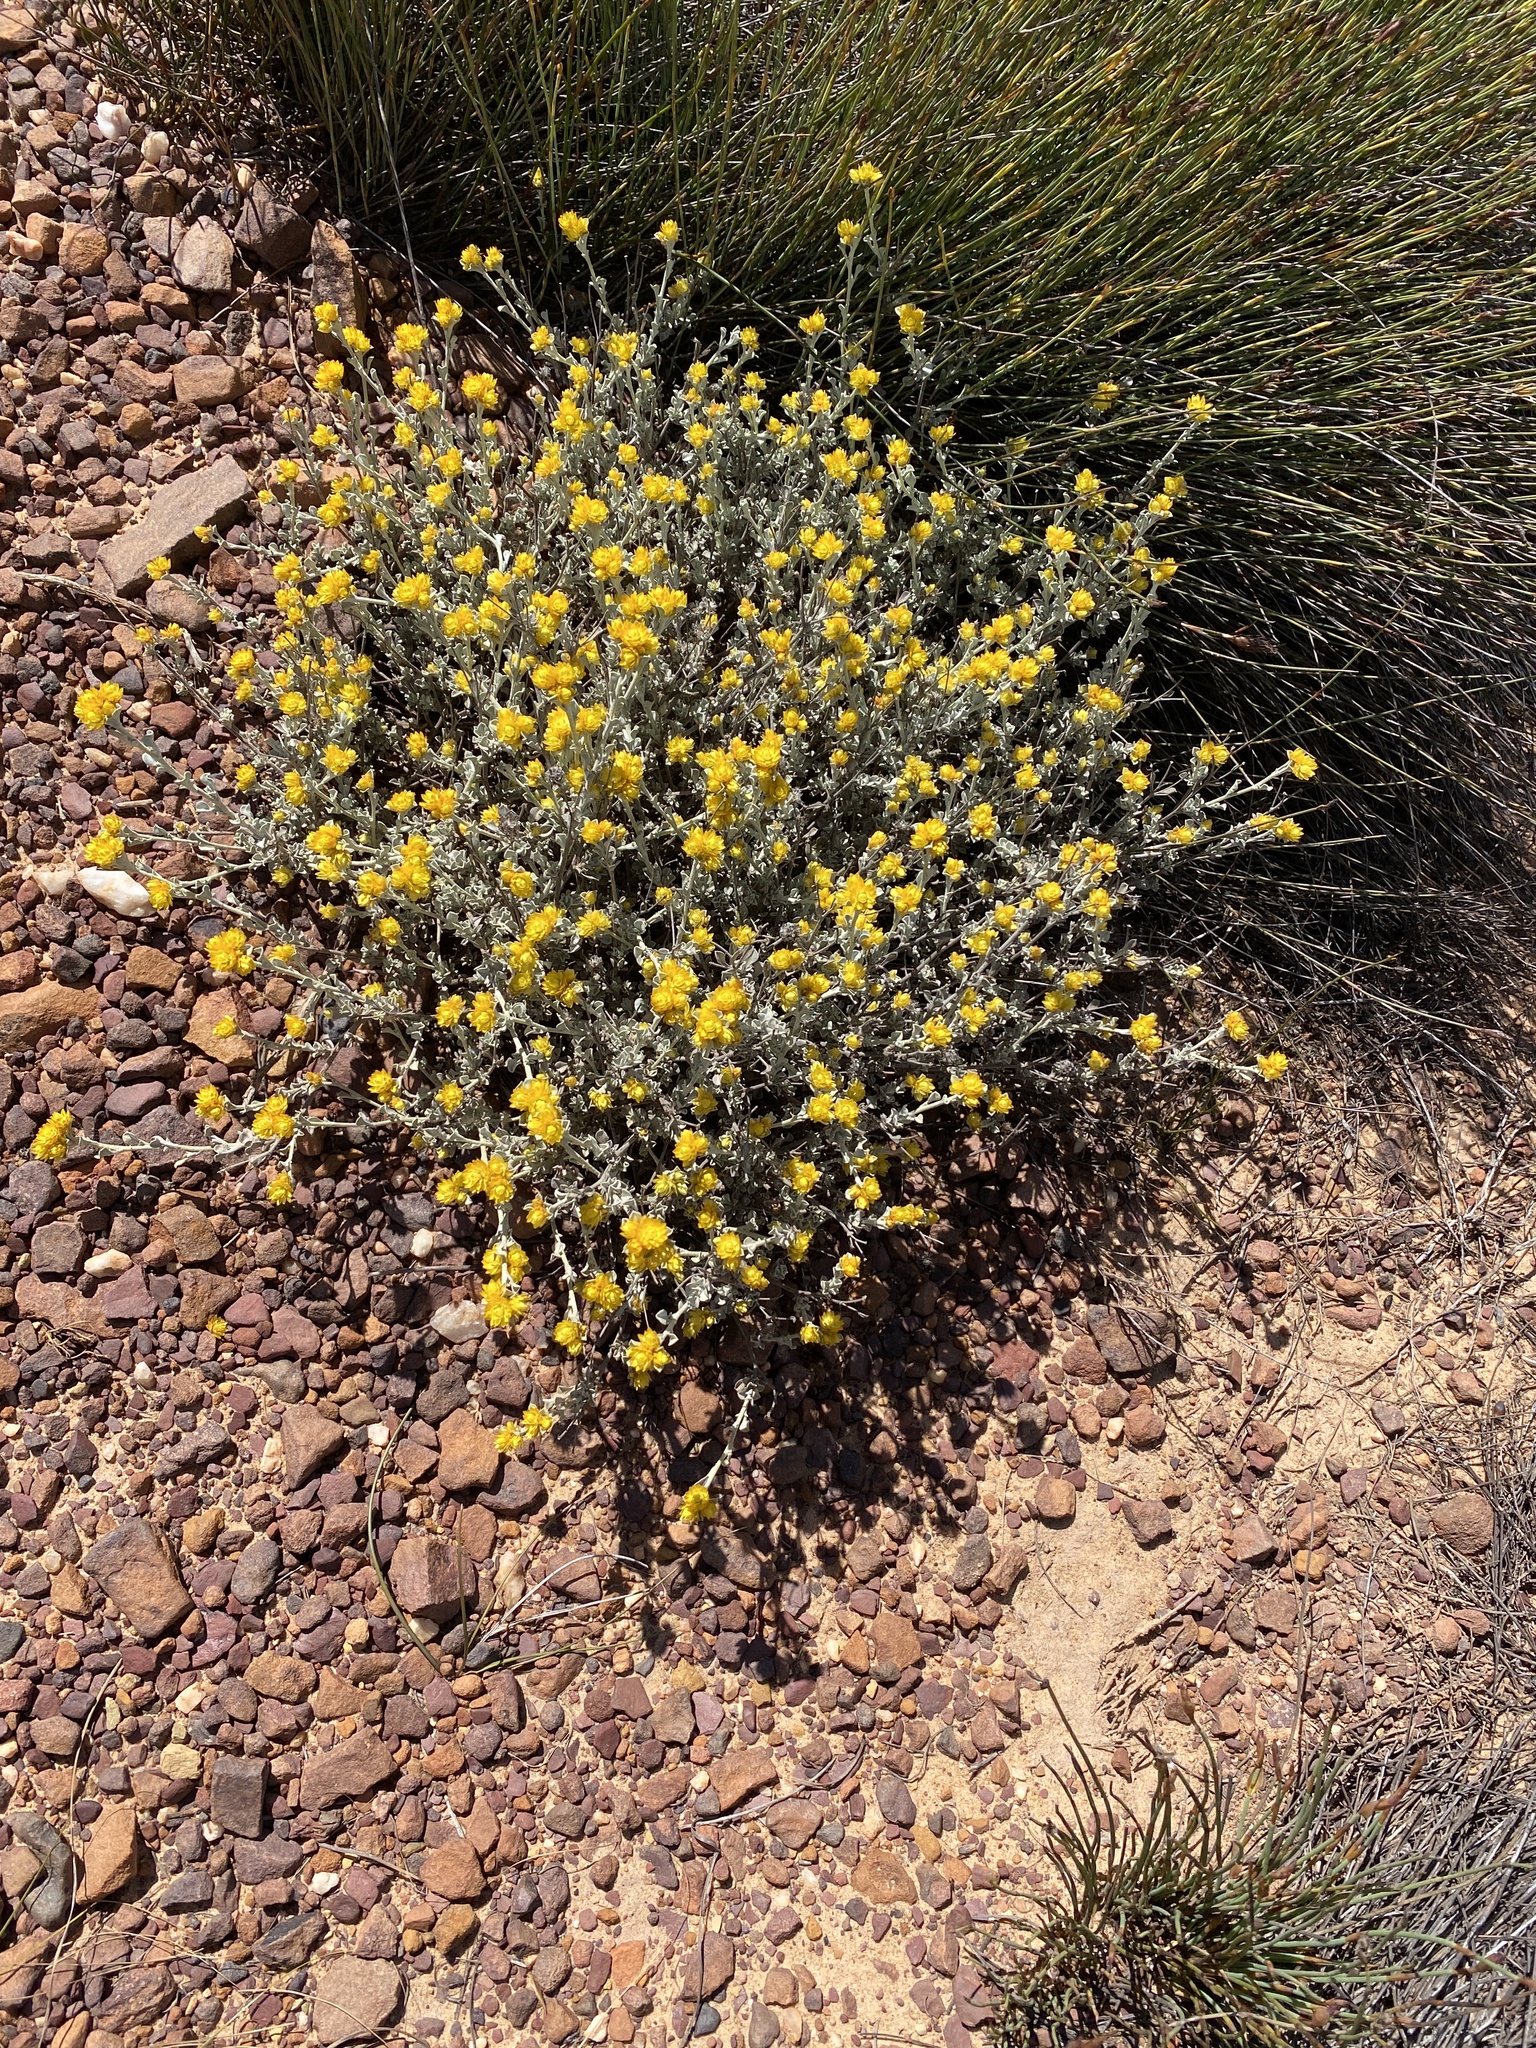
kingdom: Plantae
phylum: Tracheophyta
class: Magnoliopsida
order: Asterales
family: Asteraceae
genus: Helichrysum
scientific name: Helichrysum acrophilum
